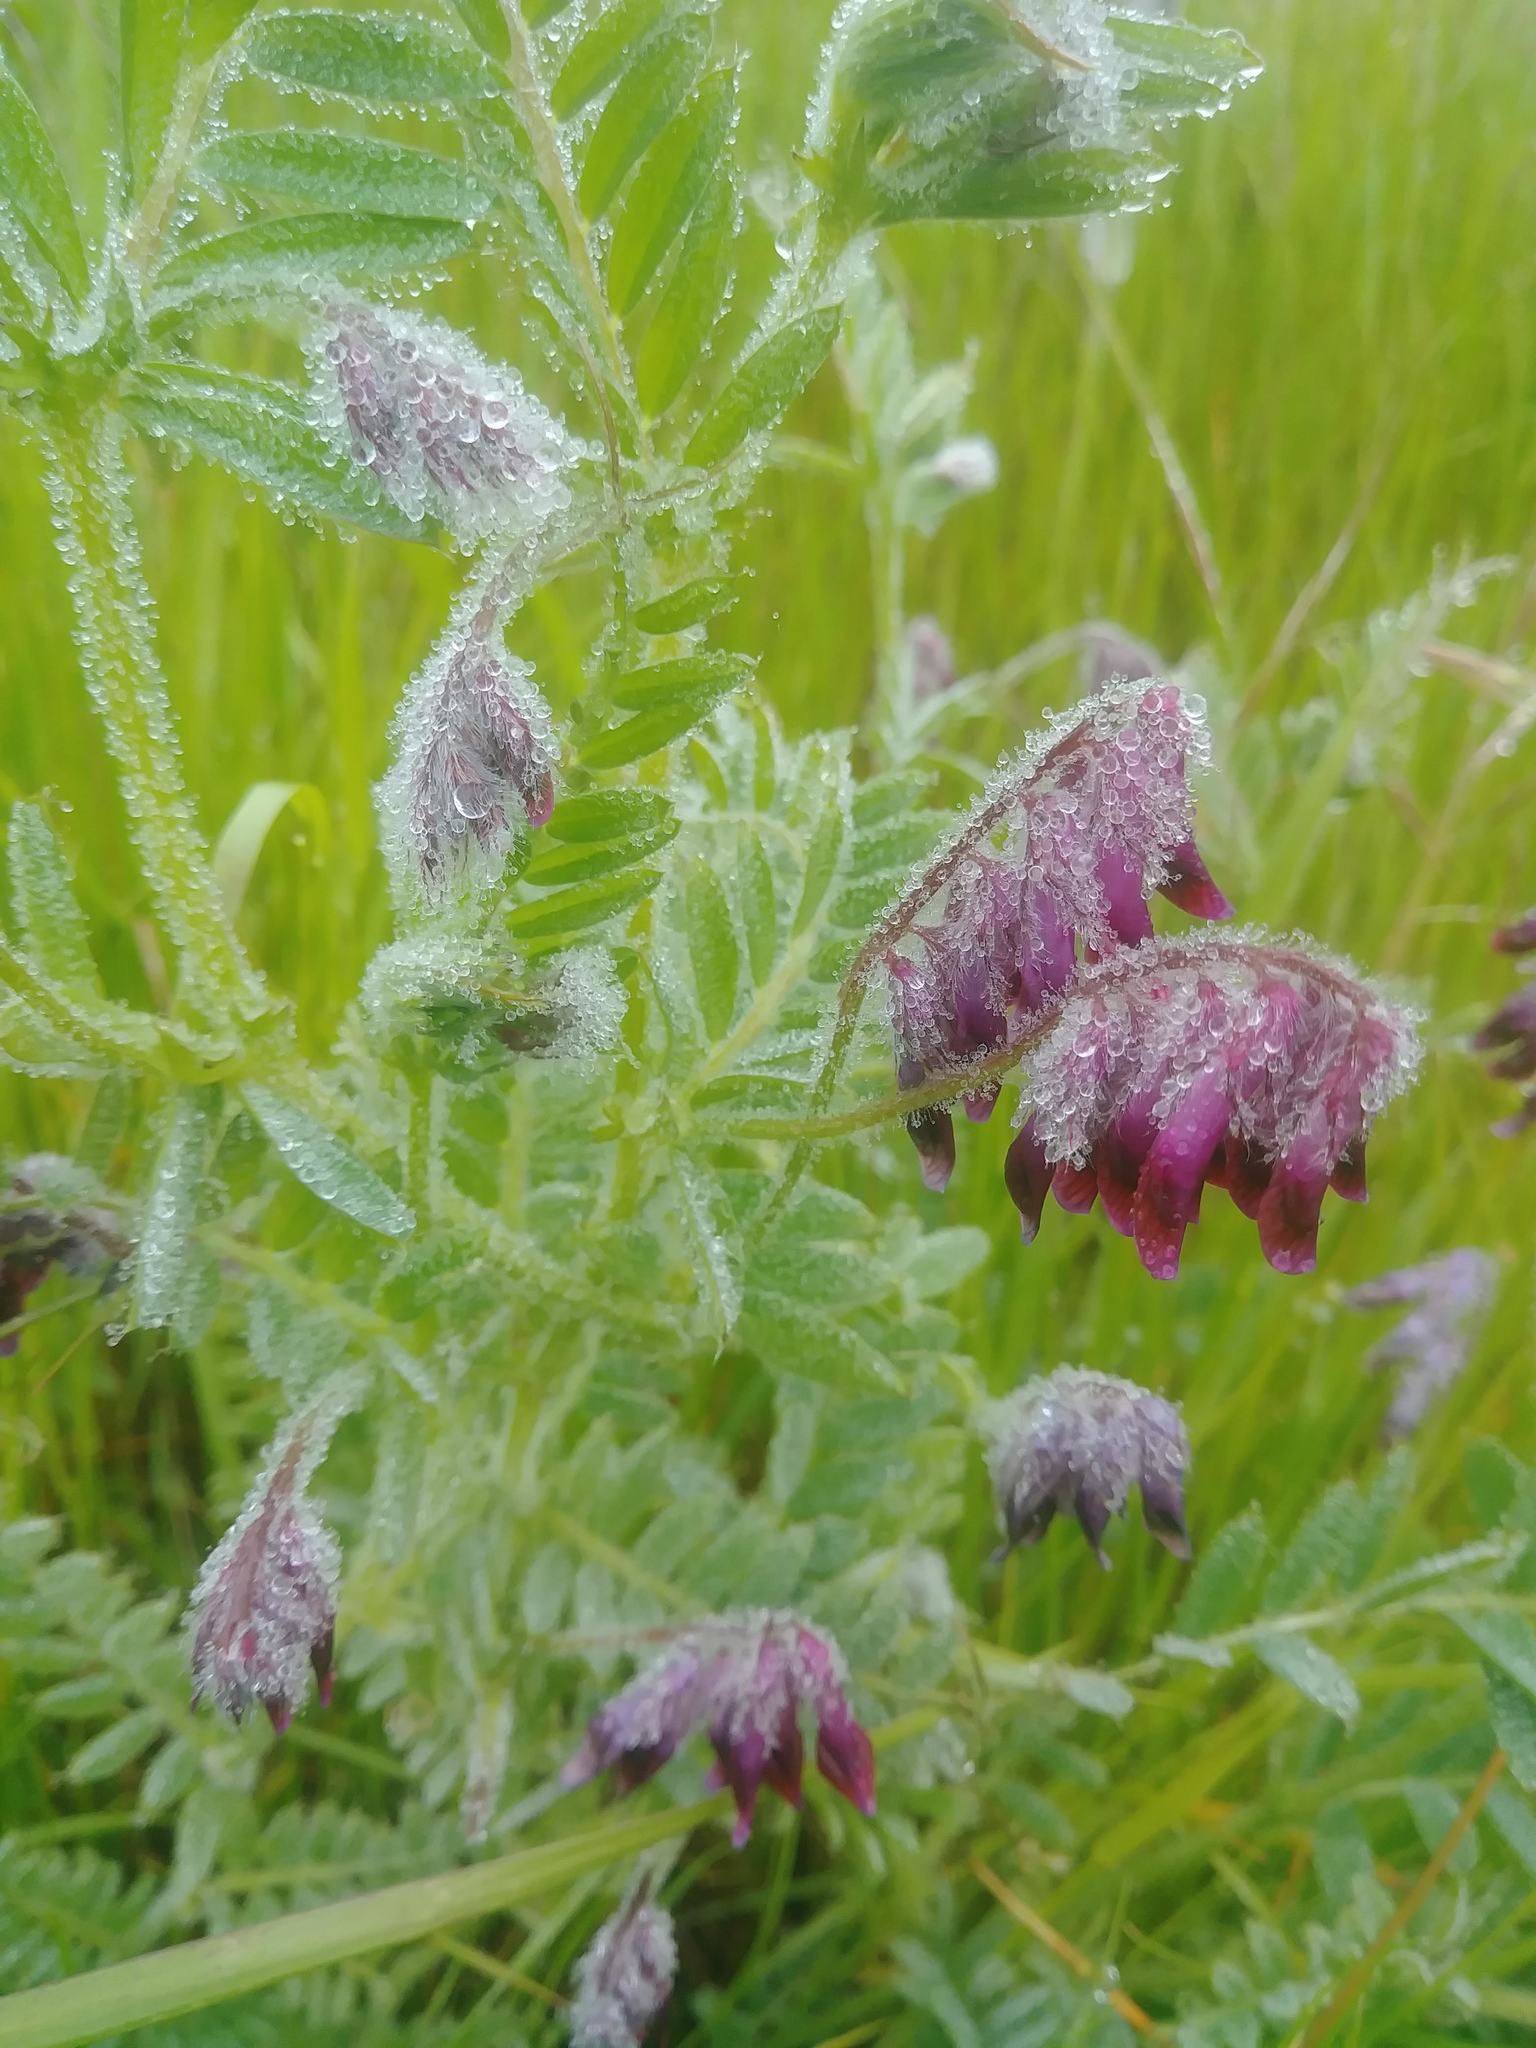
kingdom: Plantae
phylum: Tracheophyta
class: Magnoliopsida
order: Fabales
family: Fabaceae
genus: Vicia
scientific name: Vicia benghalensis
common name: Purple vetch
